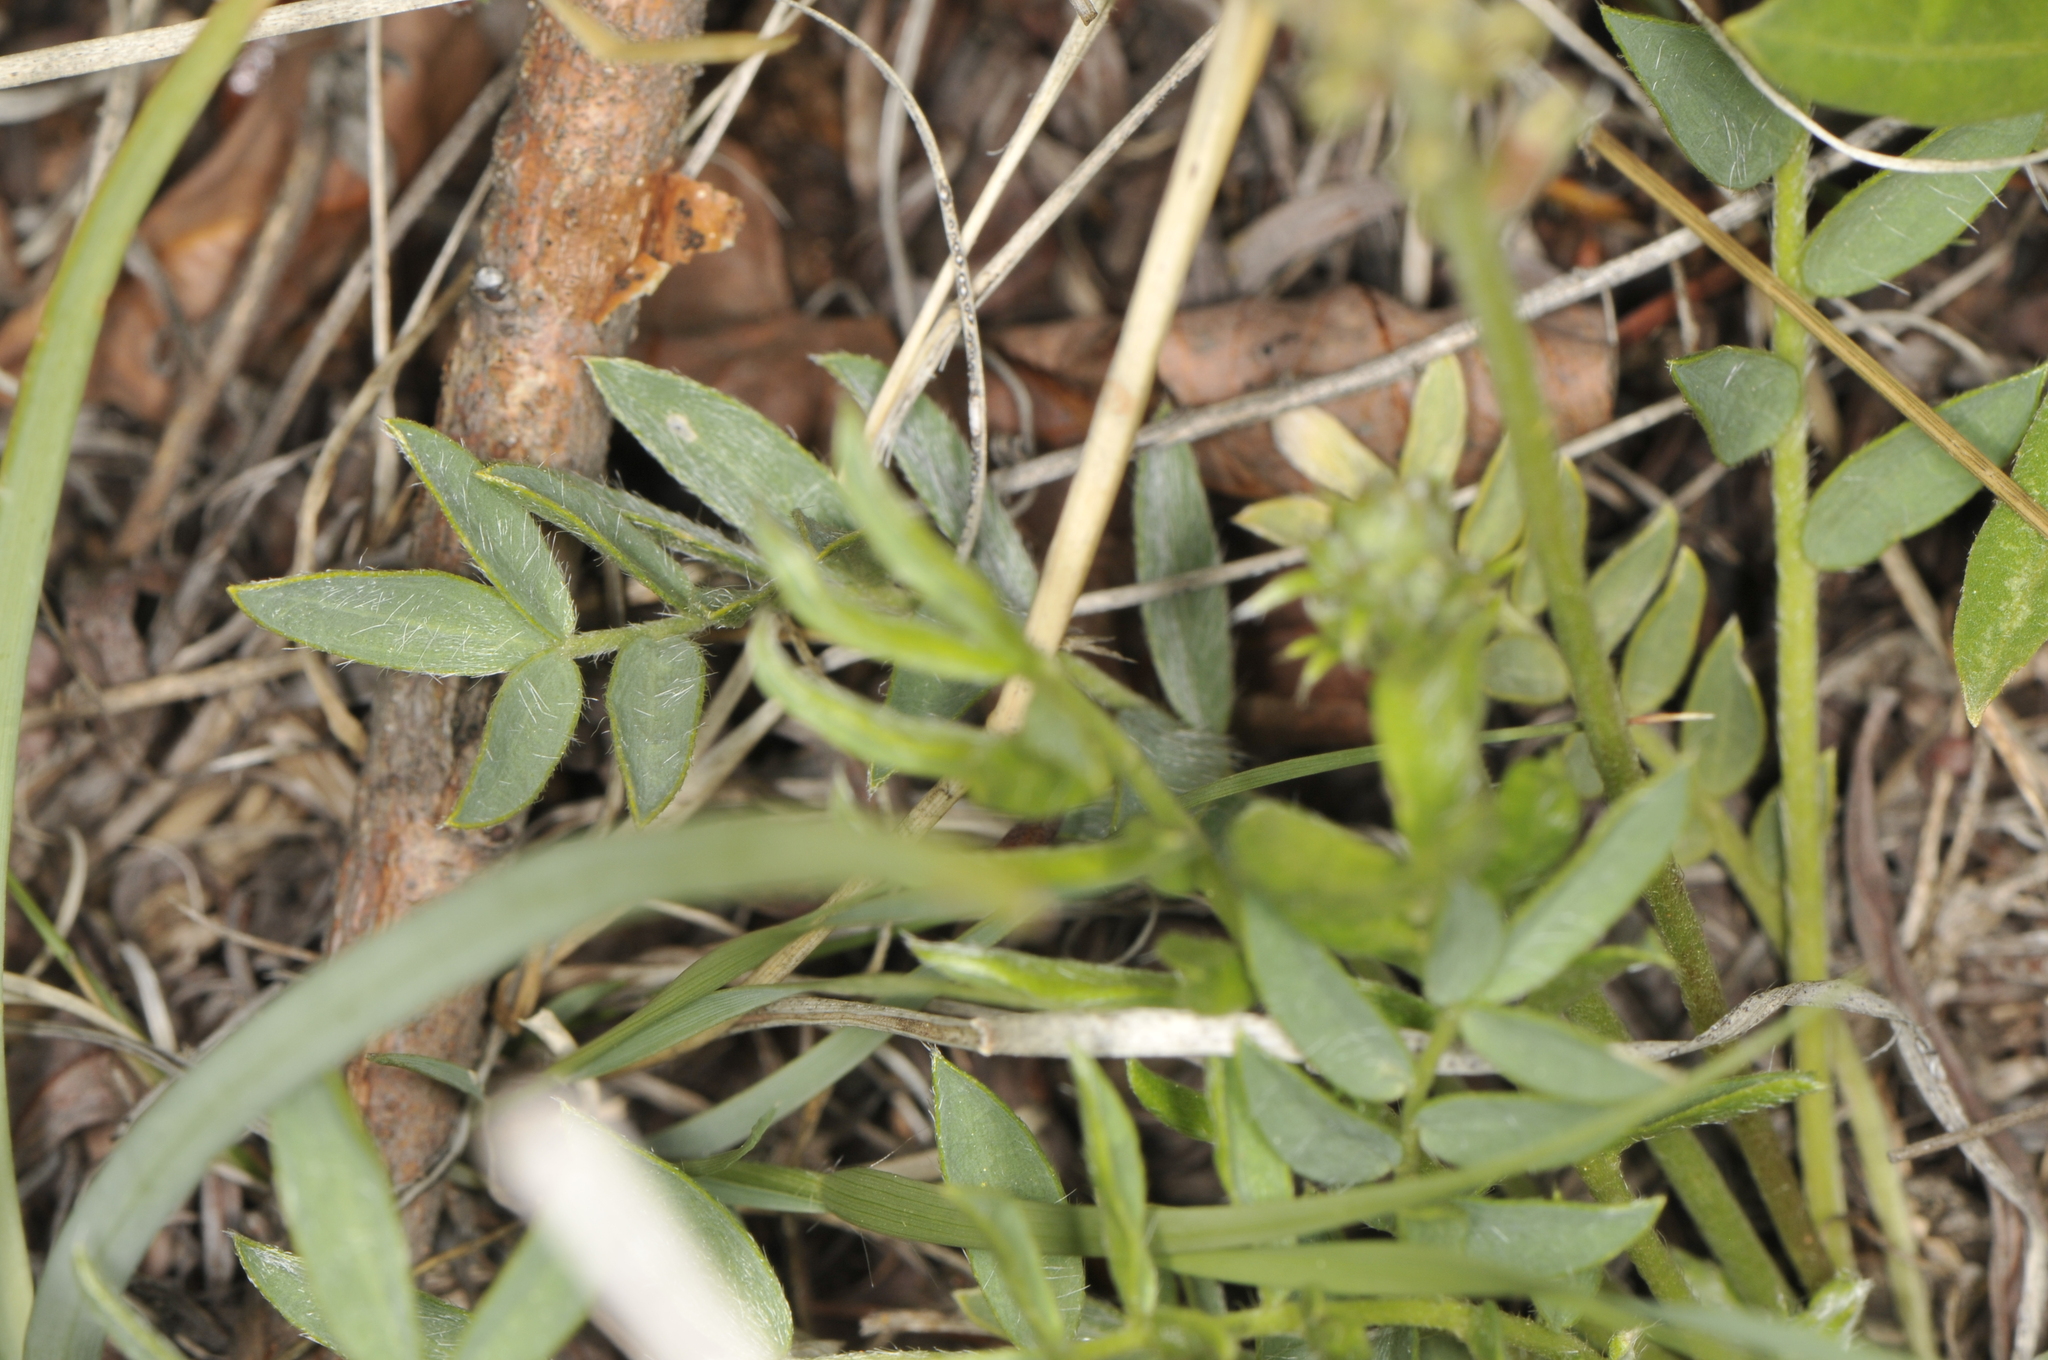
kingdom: Plantae
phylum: Tracheophyta
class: Magnoliopsida
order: Fabales
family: Fabaceae
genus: Oxytropis
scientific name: Oxytropis lambertii
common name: Purple locoweed
